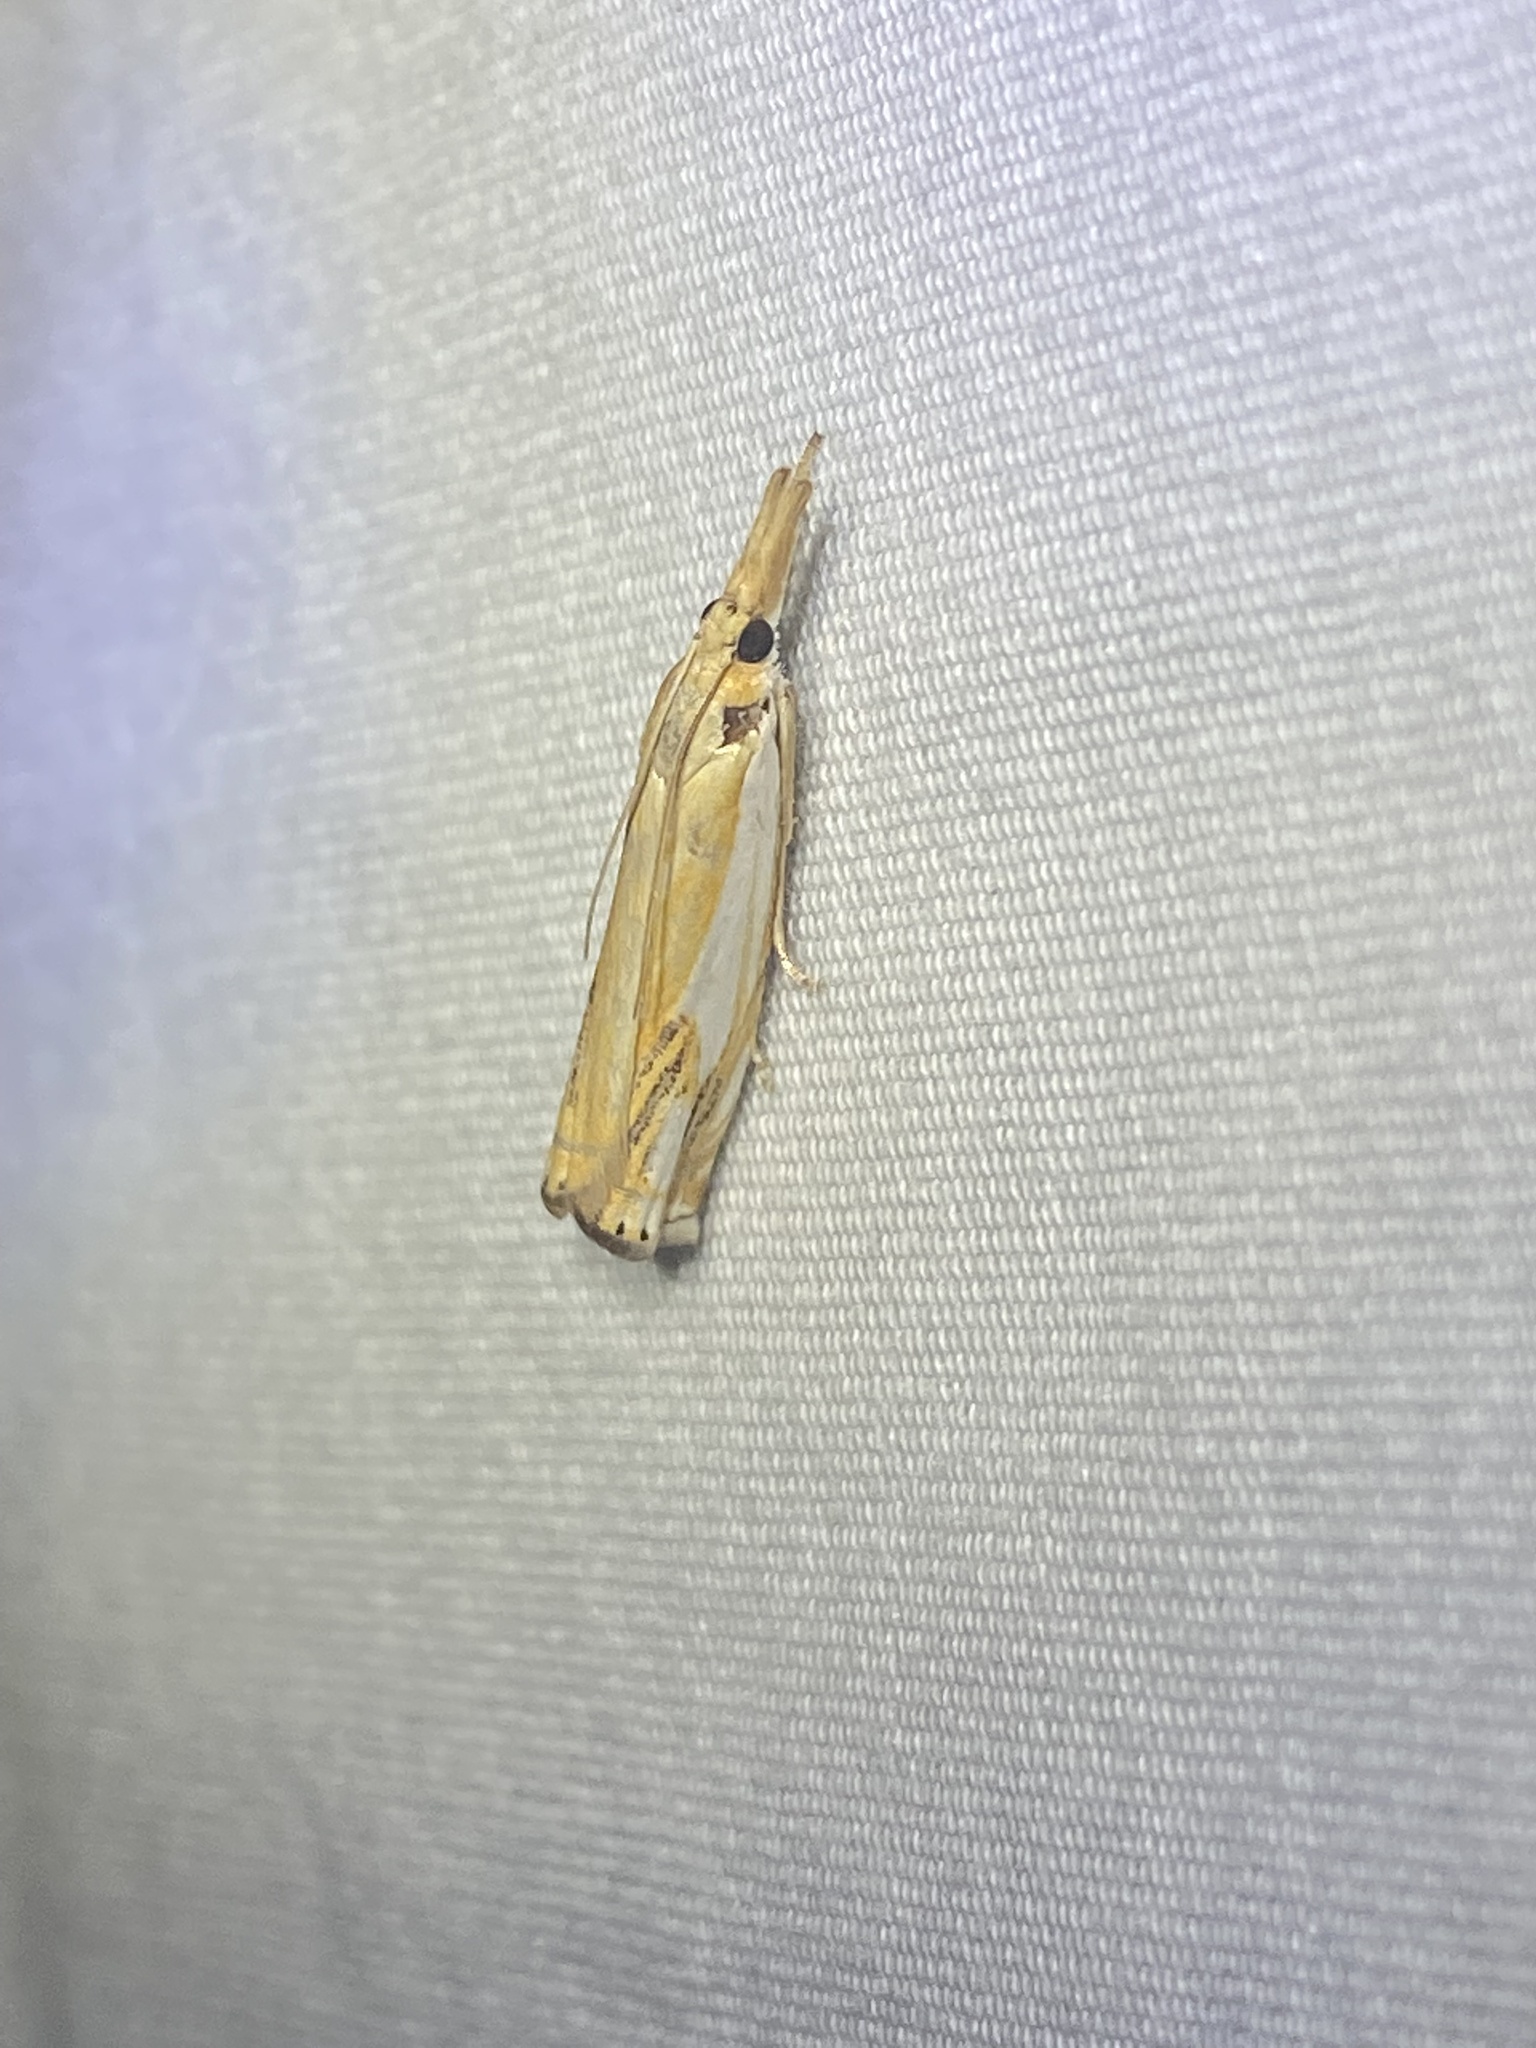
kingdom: Animalia
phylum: Arthropoda
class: Insecta
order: Lepidoptera
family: Crambidae
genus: Crambus
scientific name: Crambus agitatellus
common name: Double-banded grass-veneer
